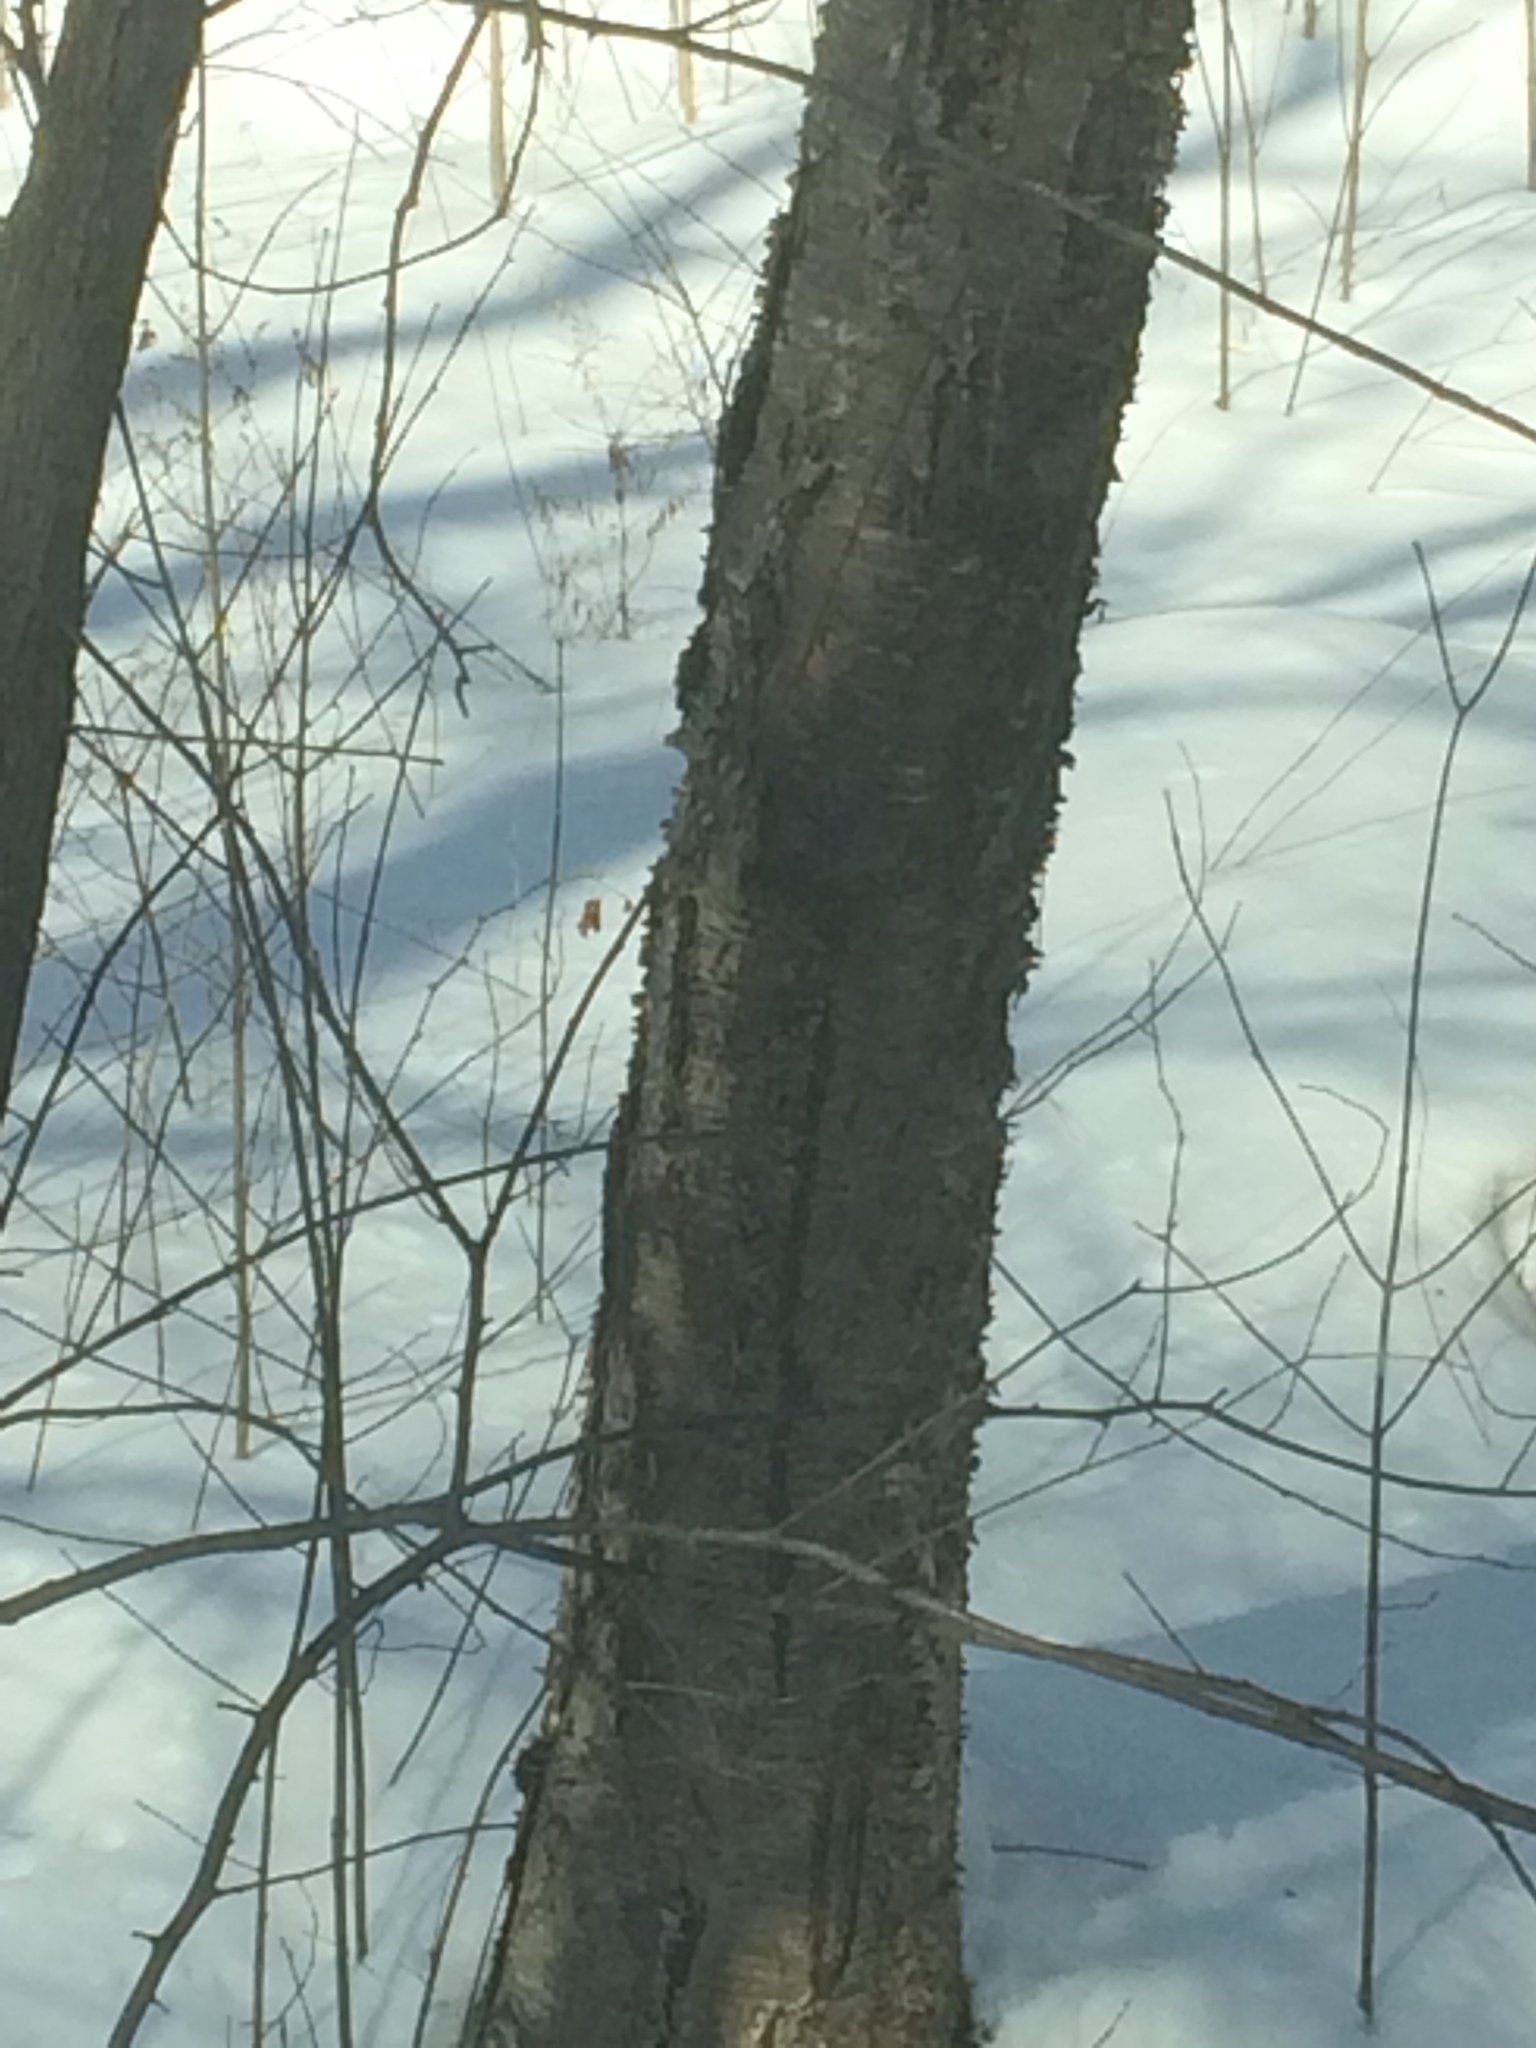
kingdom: Plantae
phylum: Tracheophyta
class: Magnoliopsida
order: Fagales
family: Betulaceae
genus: Betula
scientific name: Betula alleghaniensis
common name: Yellow birch
